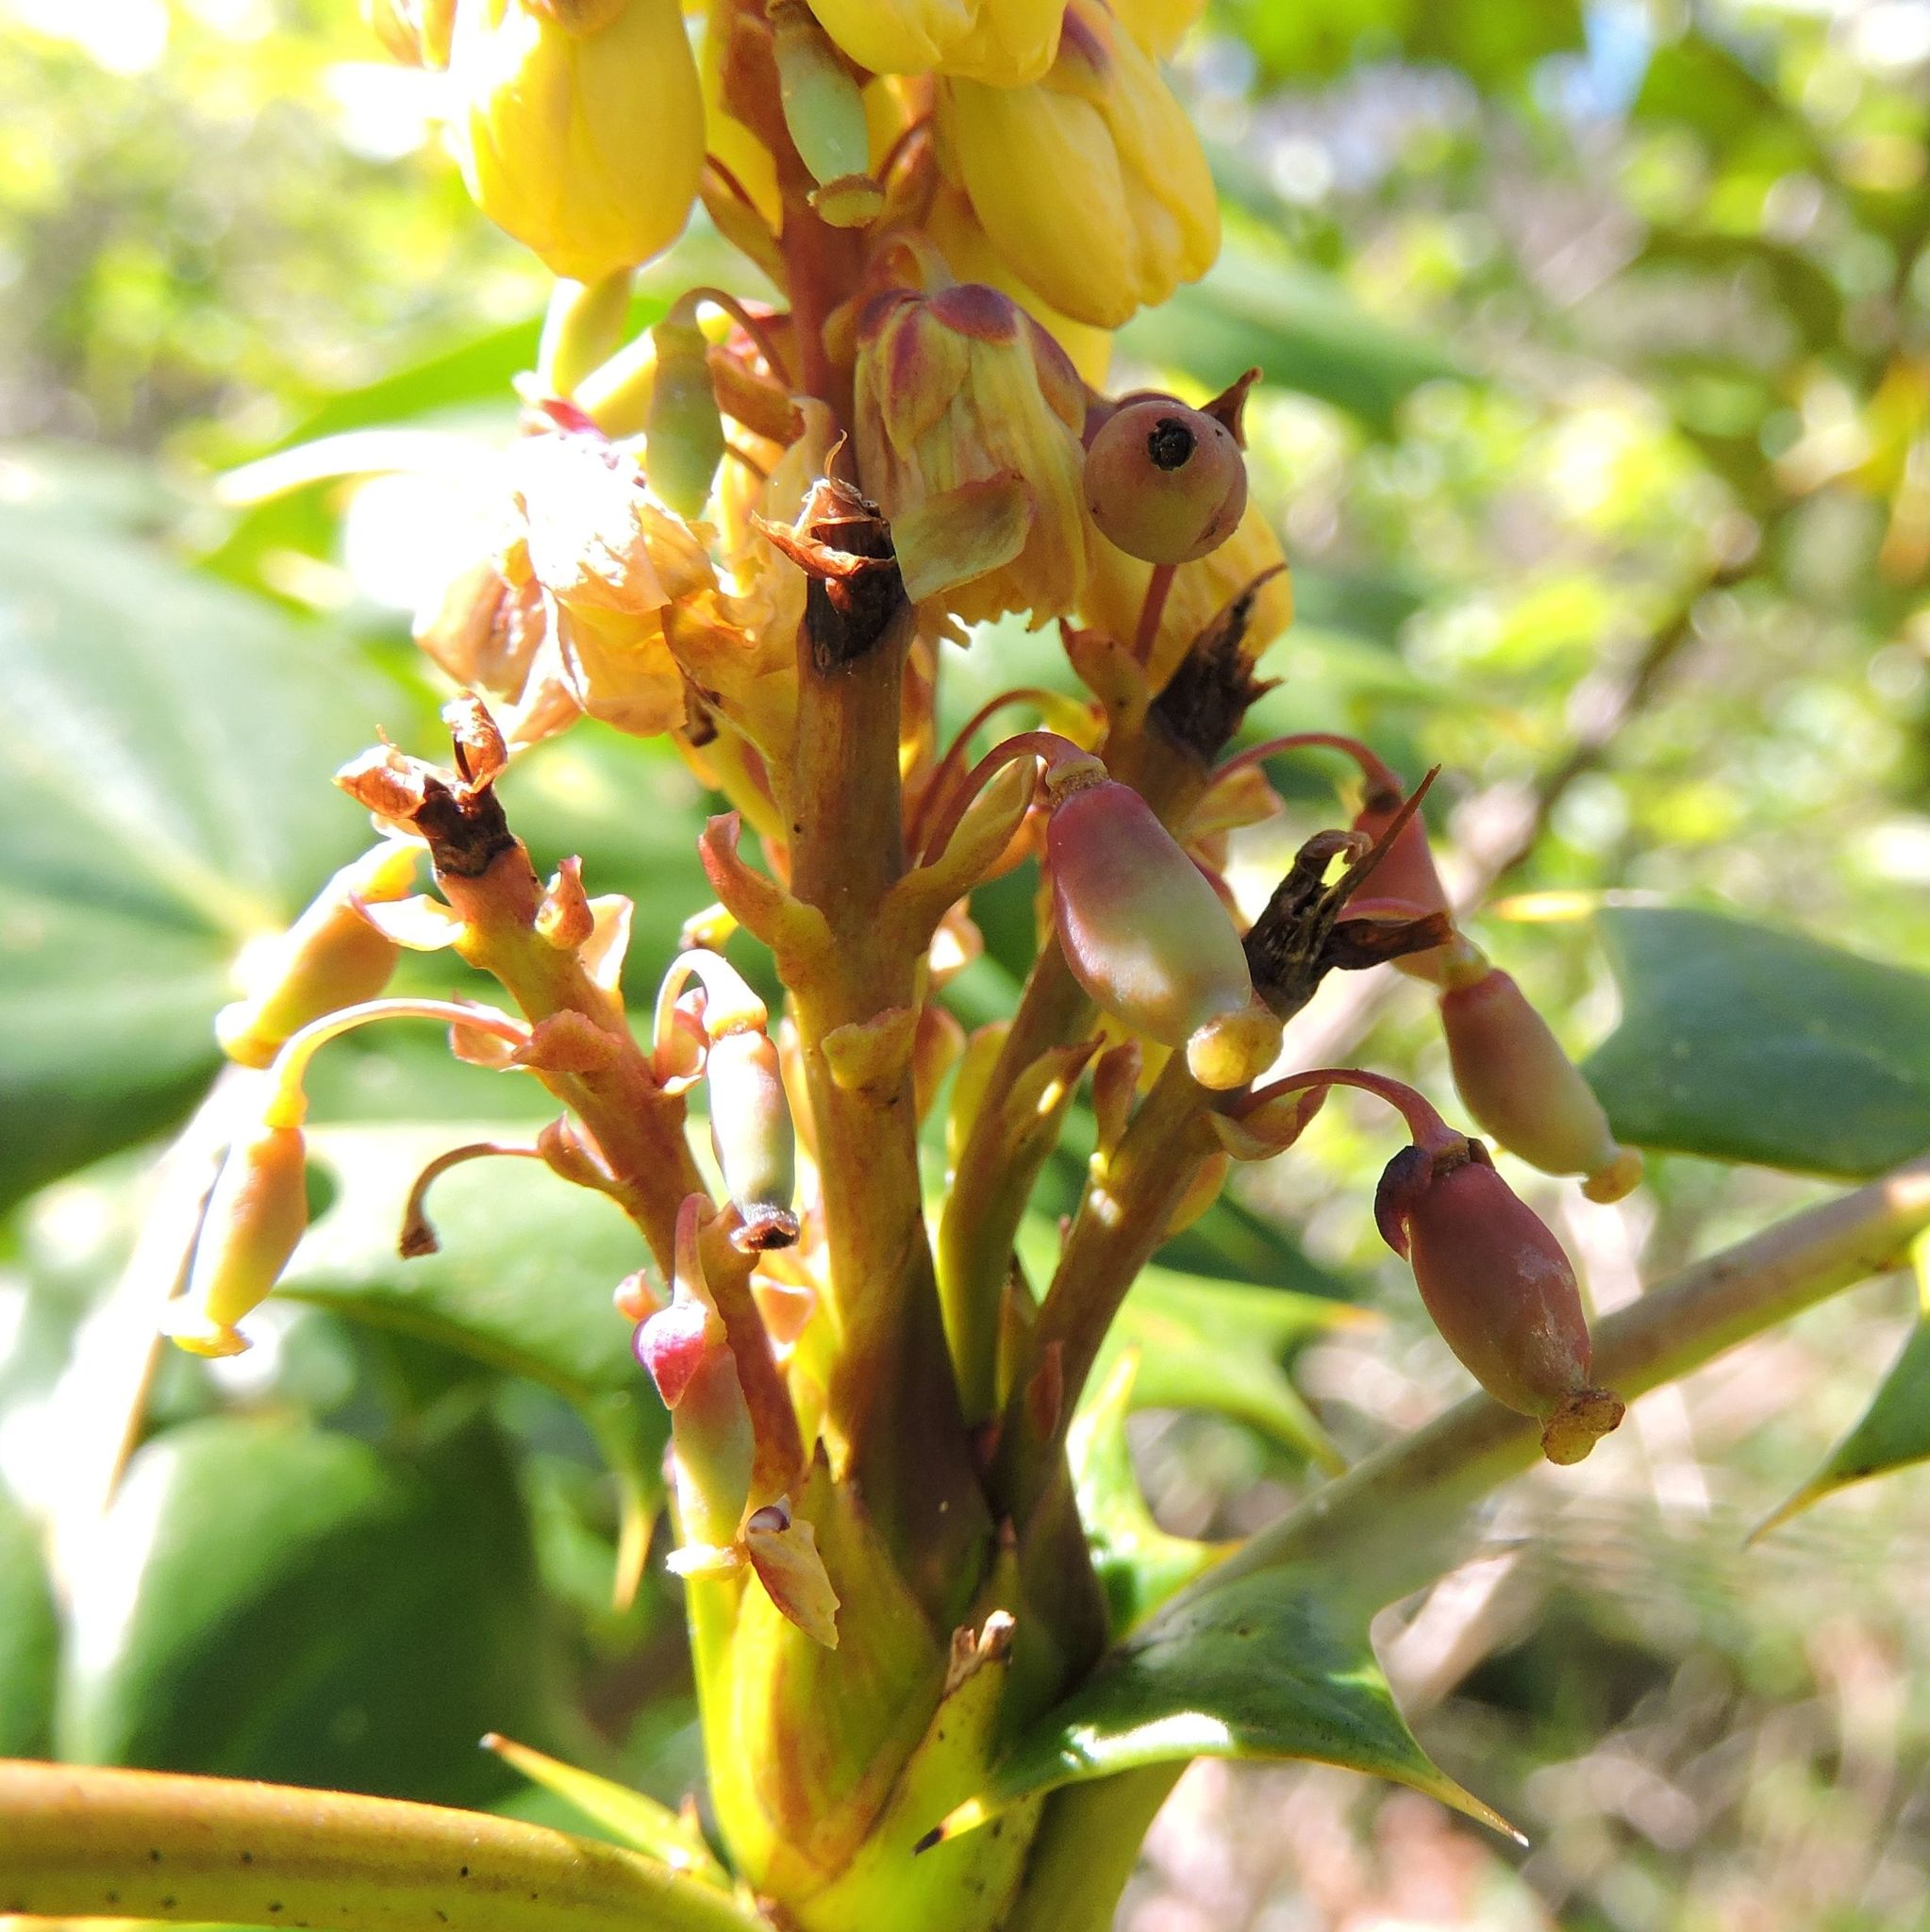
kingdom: Plantae
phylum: Tracheophyta
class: Magnoliopsida
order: Ranunculales
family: Berberidaceae
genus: Mahonia
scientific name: Mahonia bealei
